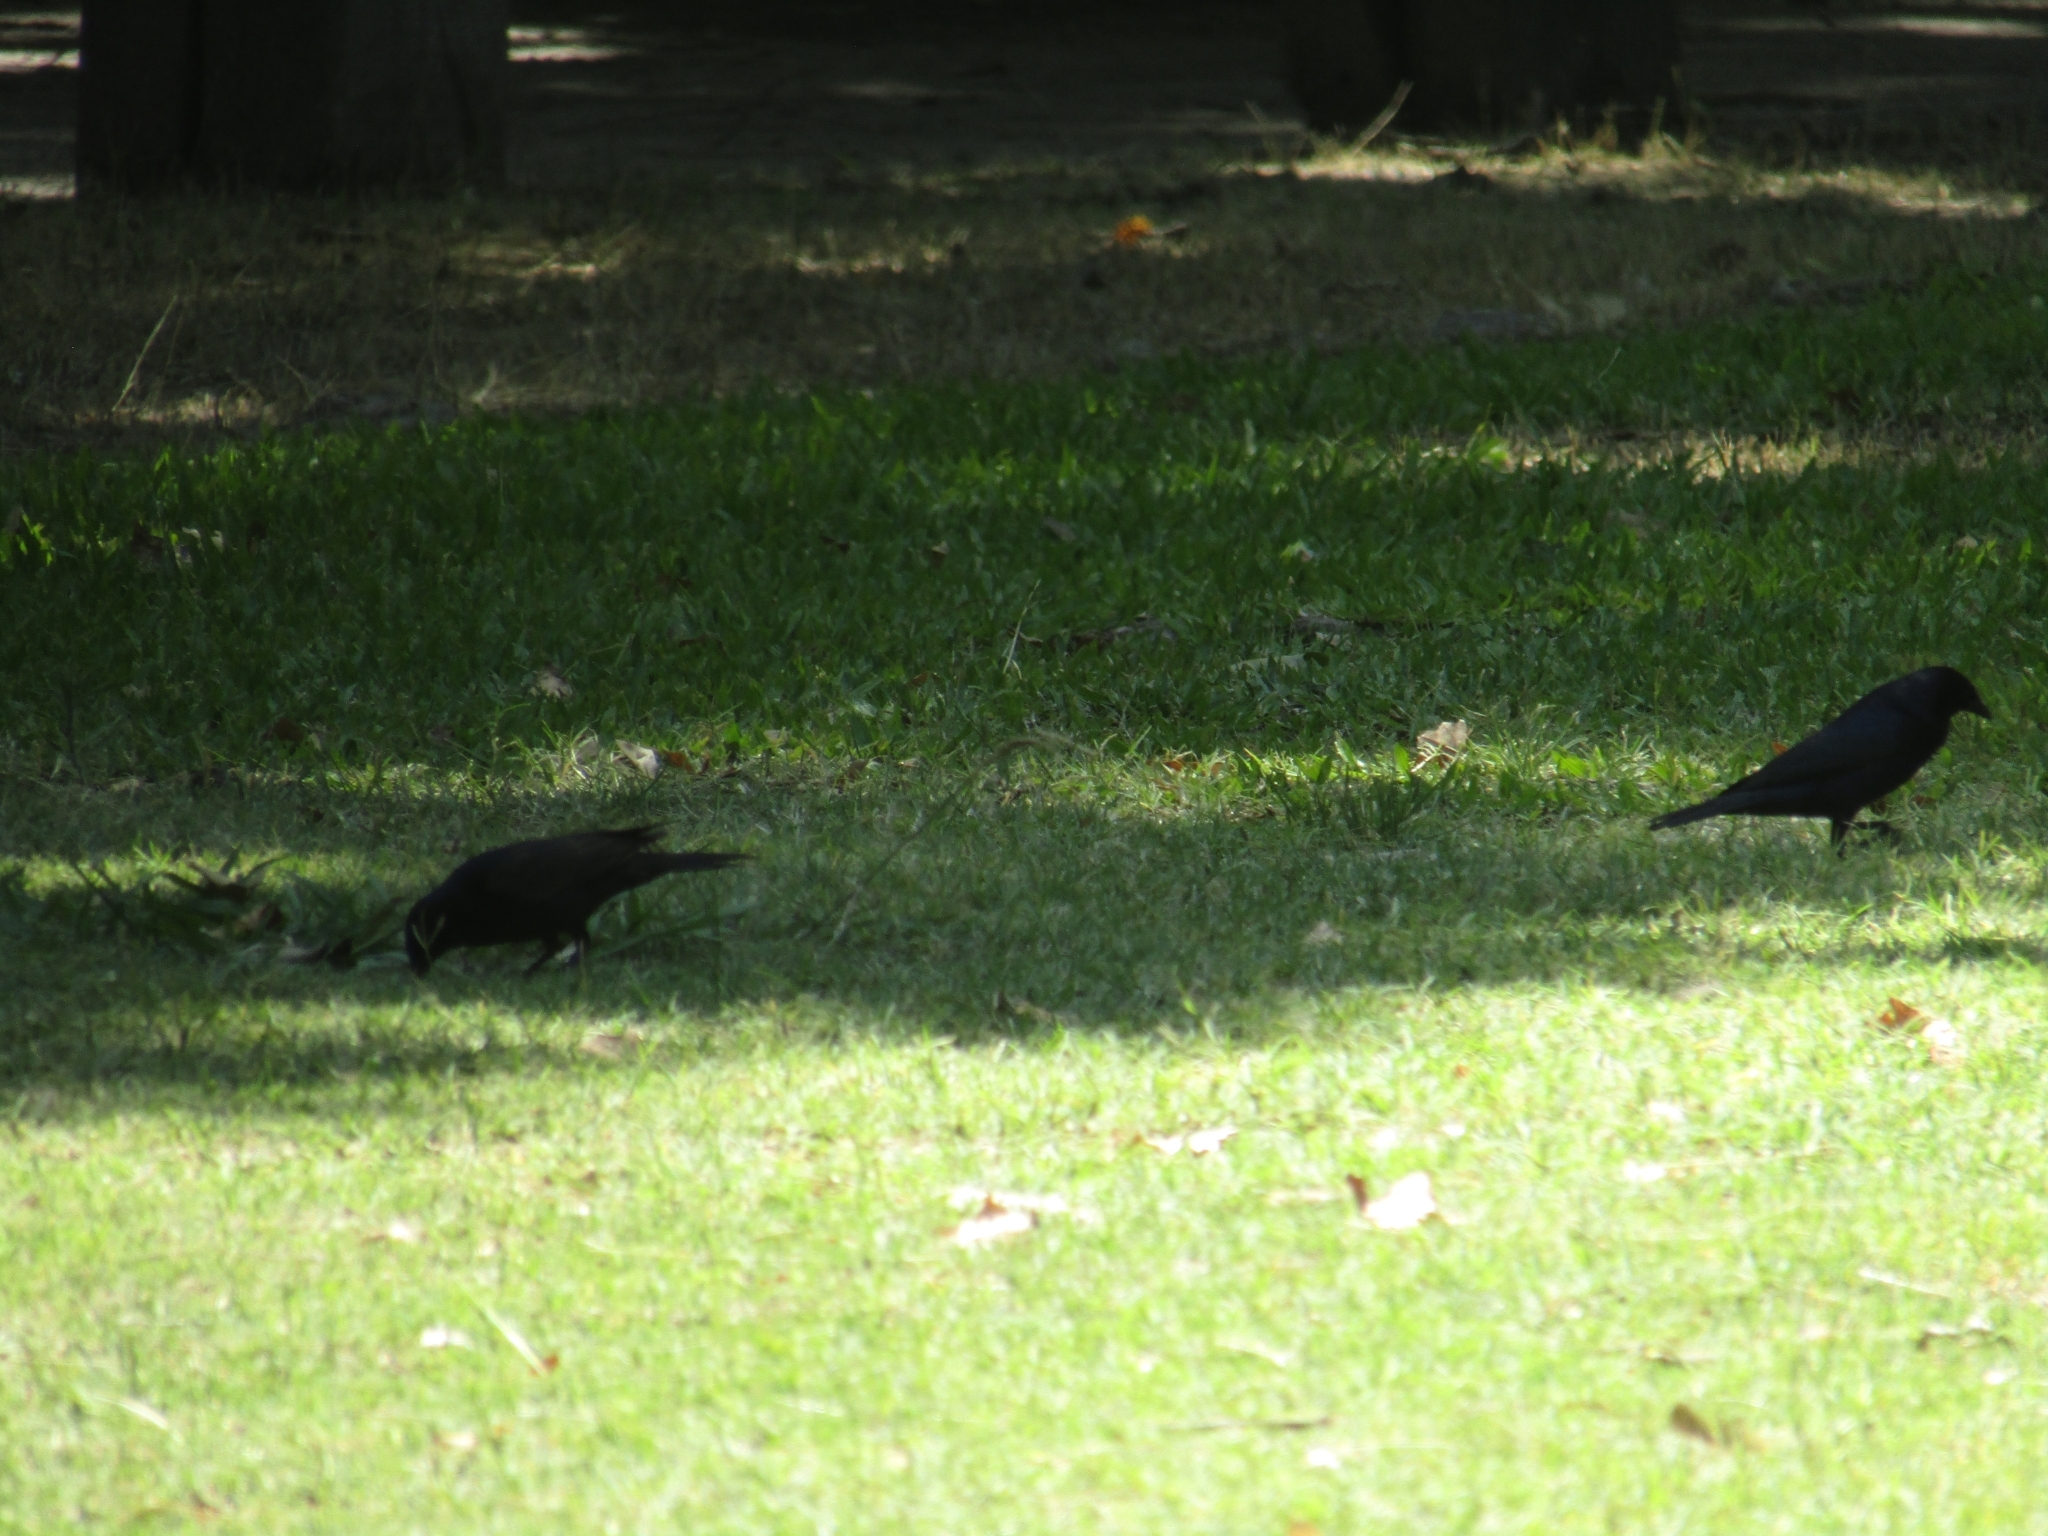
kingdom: Animalia
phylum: Chordata
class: Aves
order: Passeriformes
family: Icteridae
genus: Molothrus
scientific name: Molothrus bonariensis
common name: Shiny cowbird
